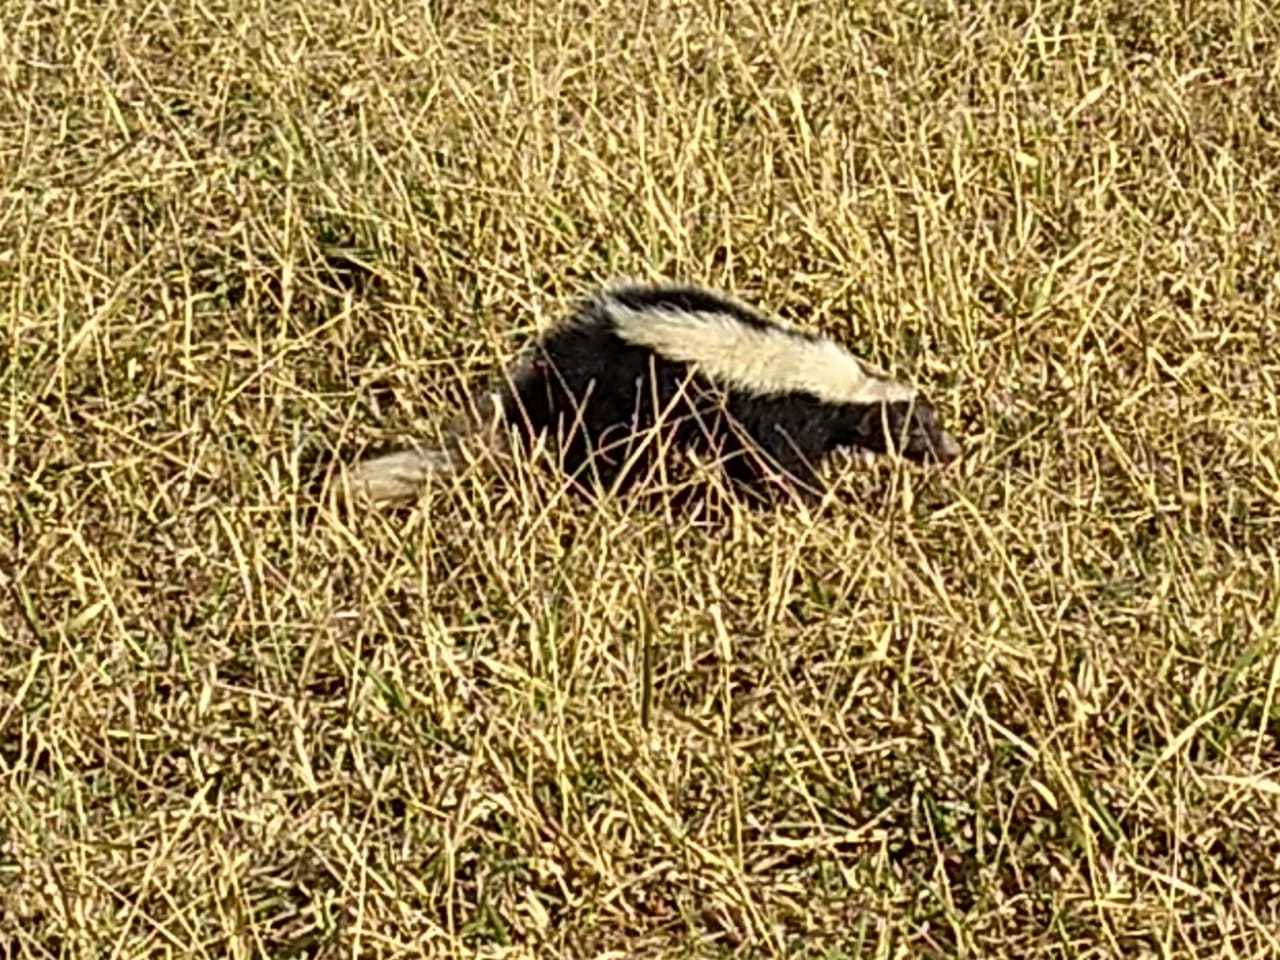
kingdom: Animalia
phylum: Chordata
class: Mammalia
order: Carnivora
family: Mephitidae
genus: Conepatus
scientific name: Conepatus chinga
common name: Molina's hog-nosed skunk
